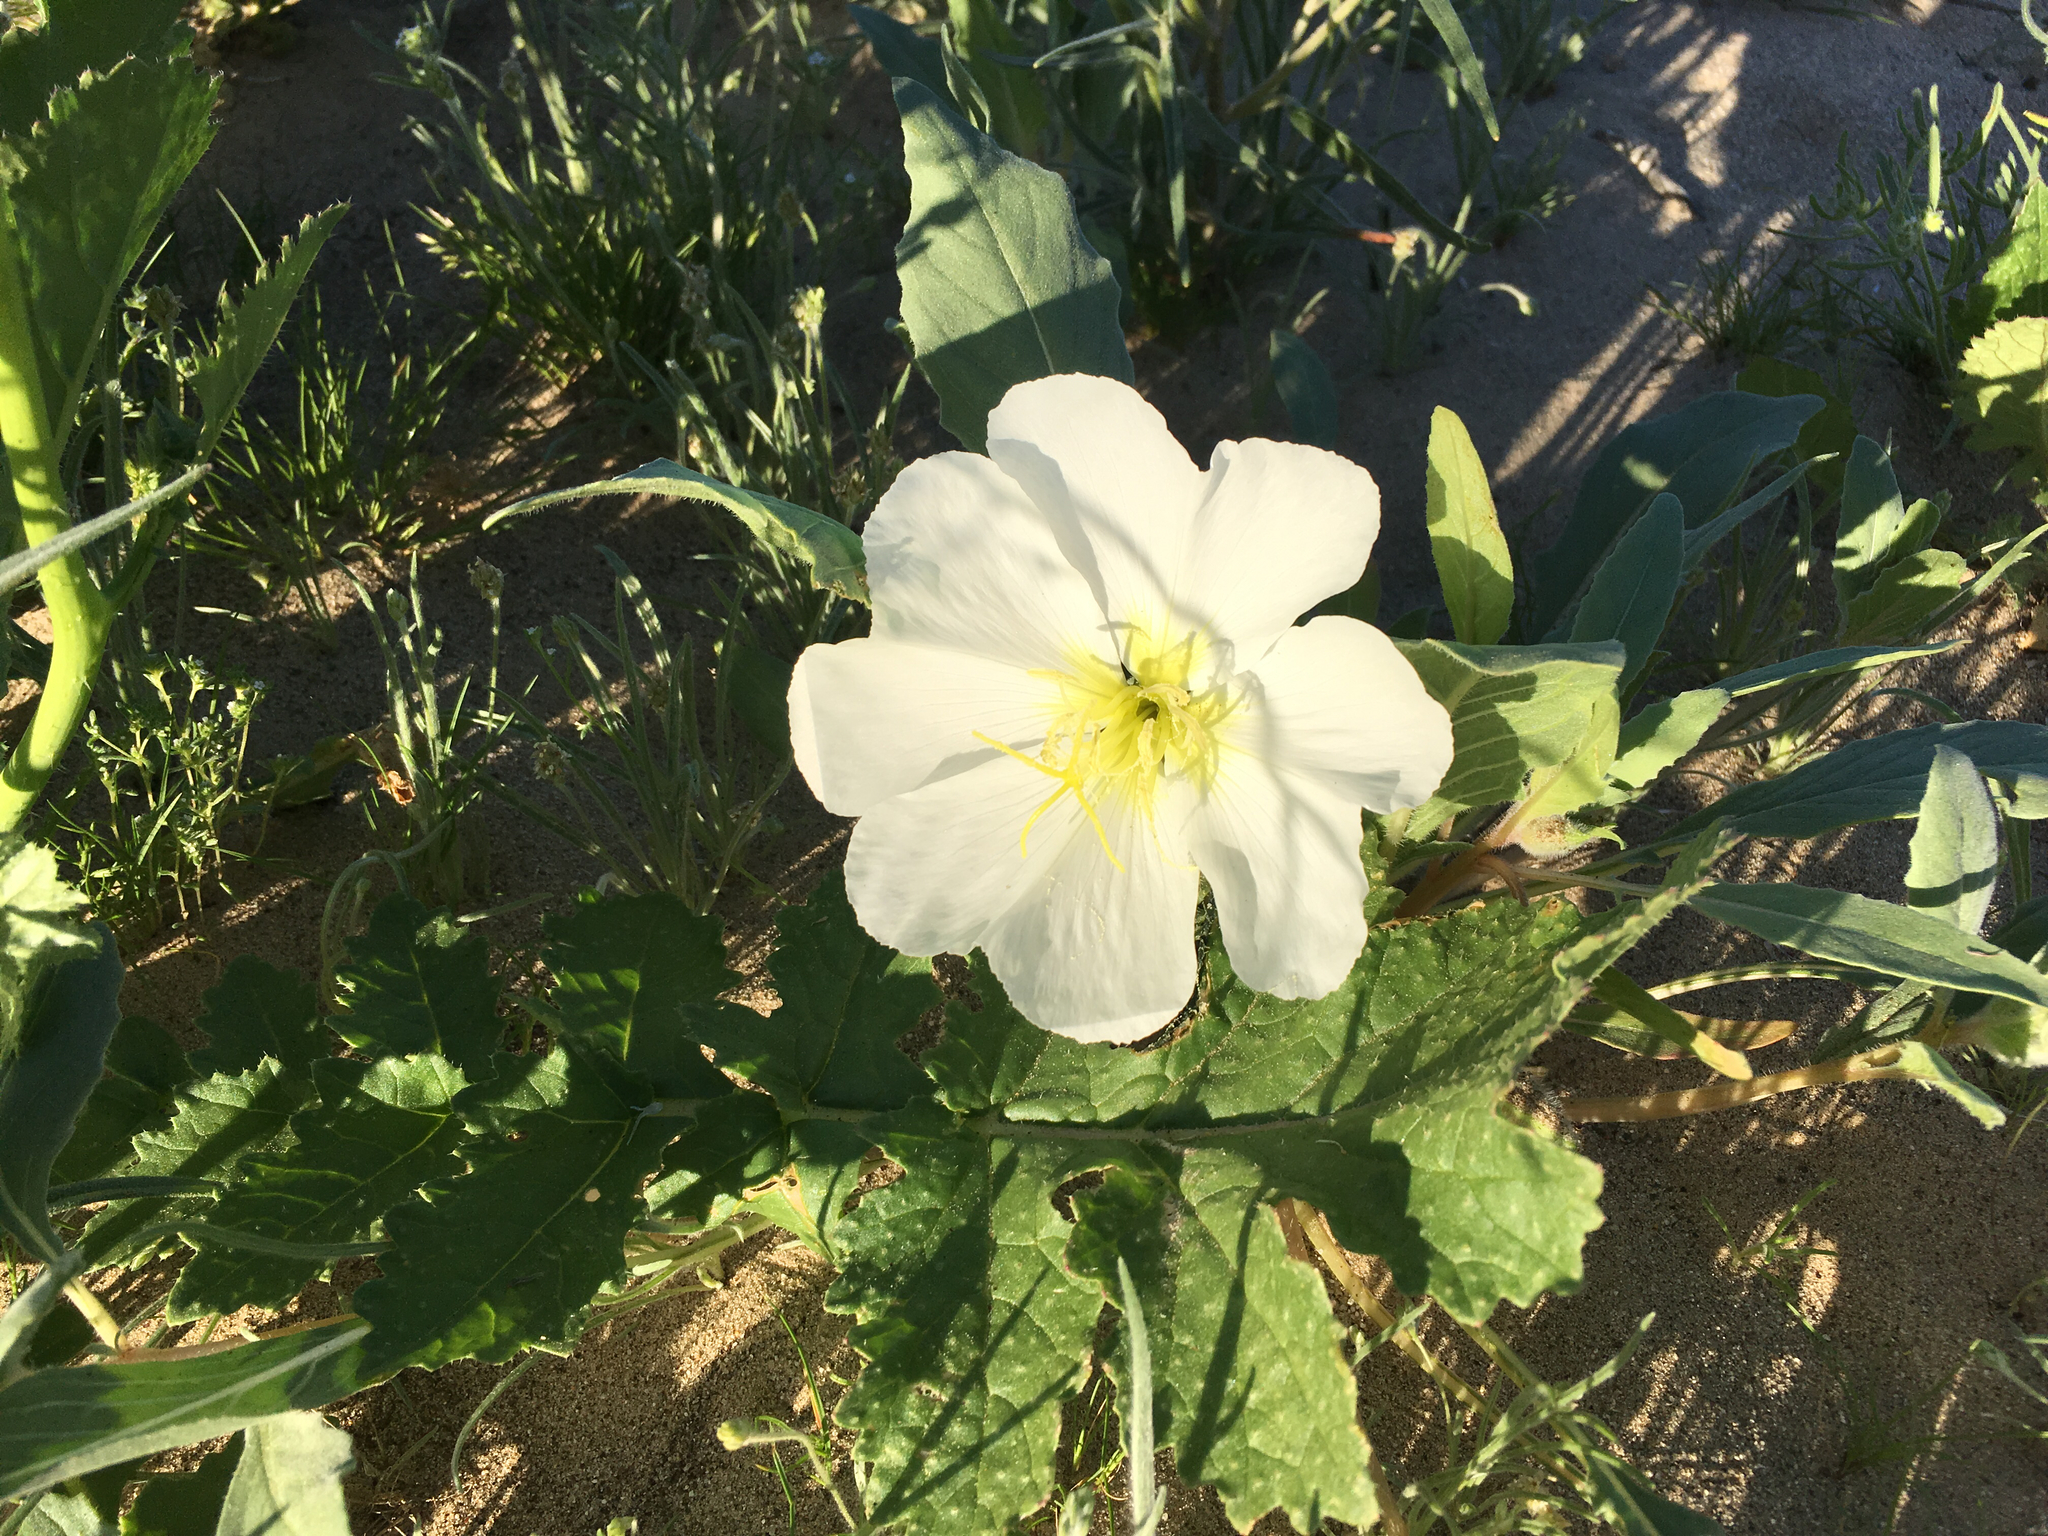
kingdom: Plantae
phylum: Tracheophyta
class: Magnoliopsida
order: Myrtales
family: Onagraceae
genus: Oenothera
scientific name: Oenothera deltoides
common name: Basket evening-primrose
